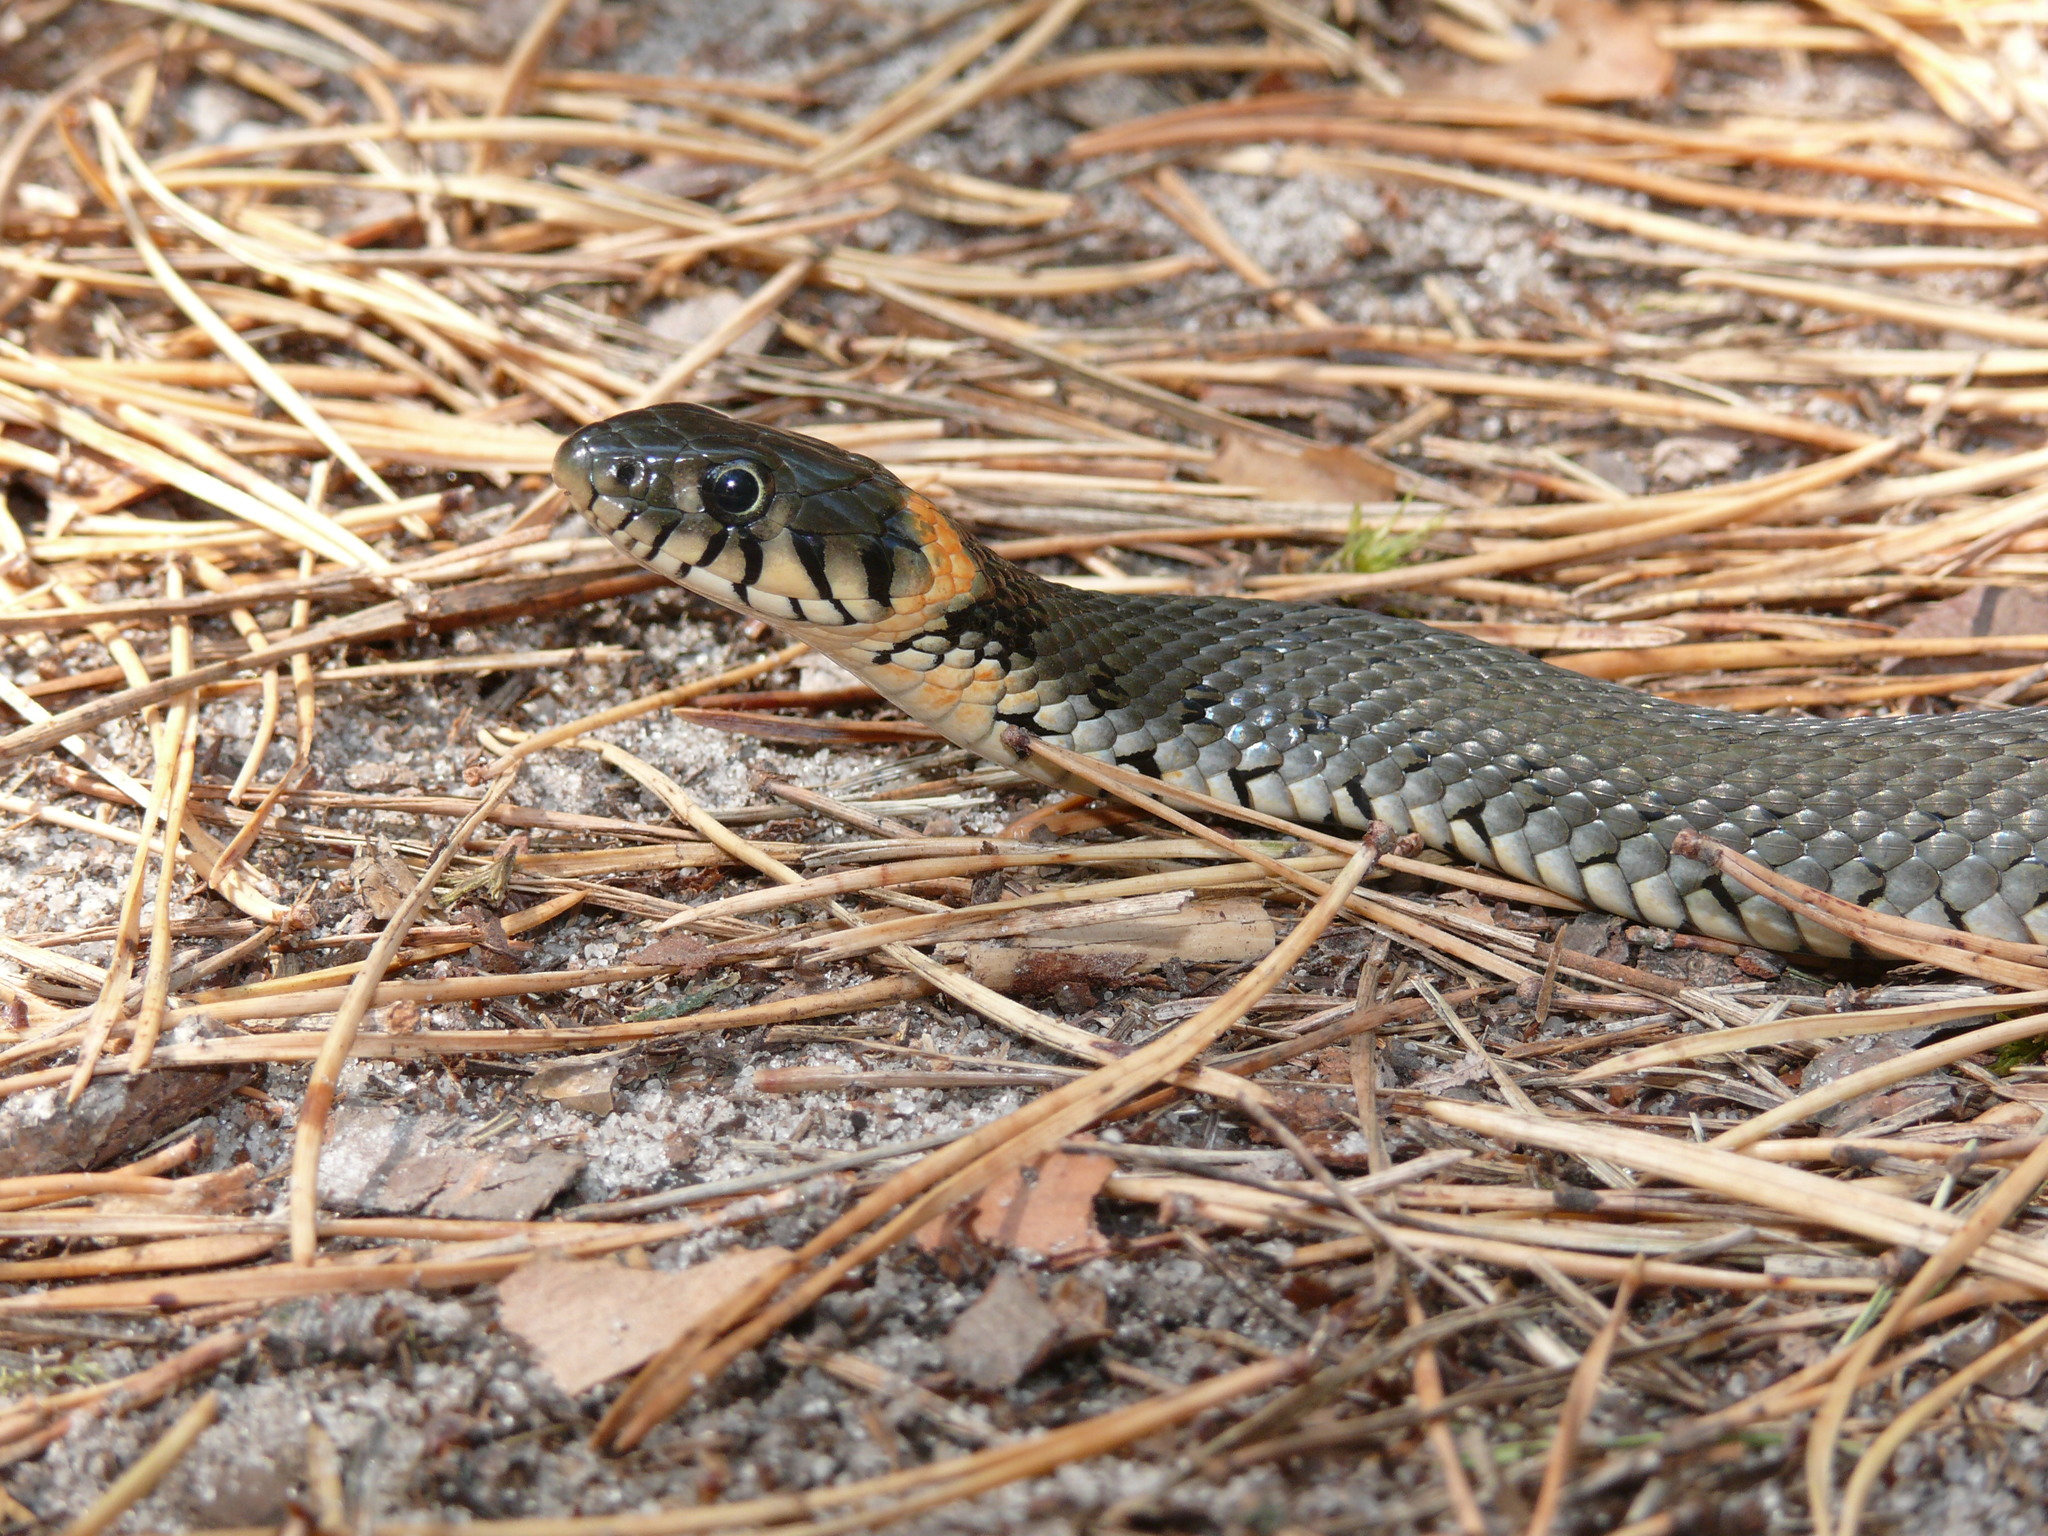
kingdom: Animalia
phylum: Chordata
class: Squamata
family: Colubridae
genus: Natrix
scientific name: Natrix natrix
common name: Grass snake
